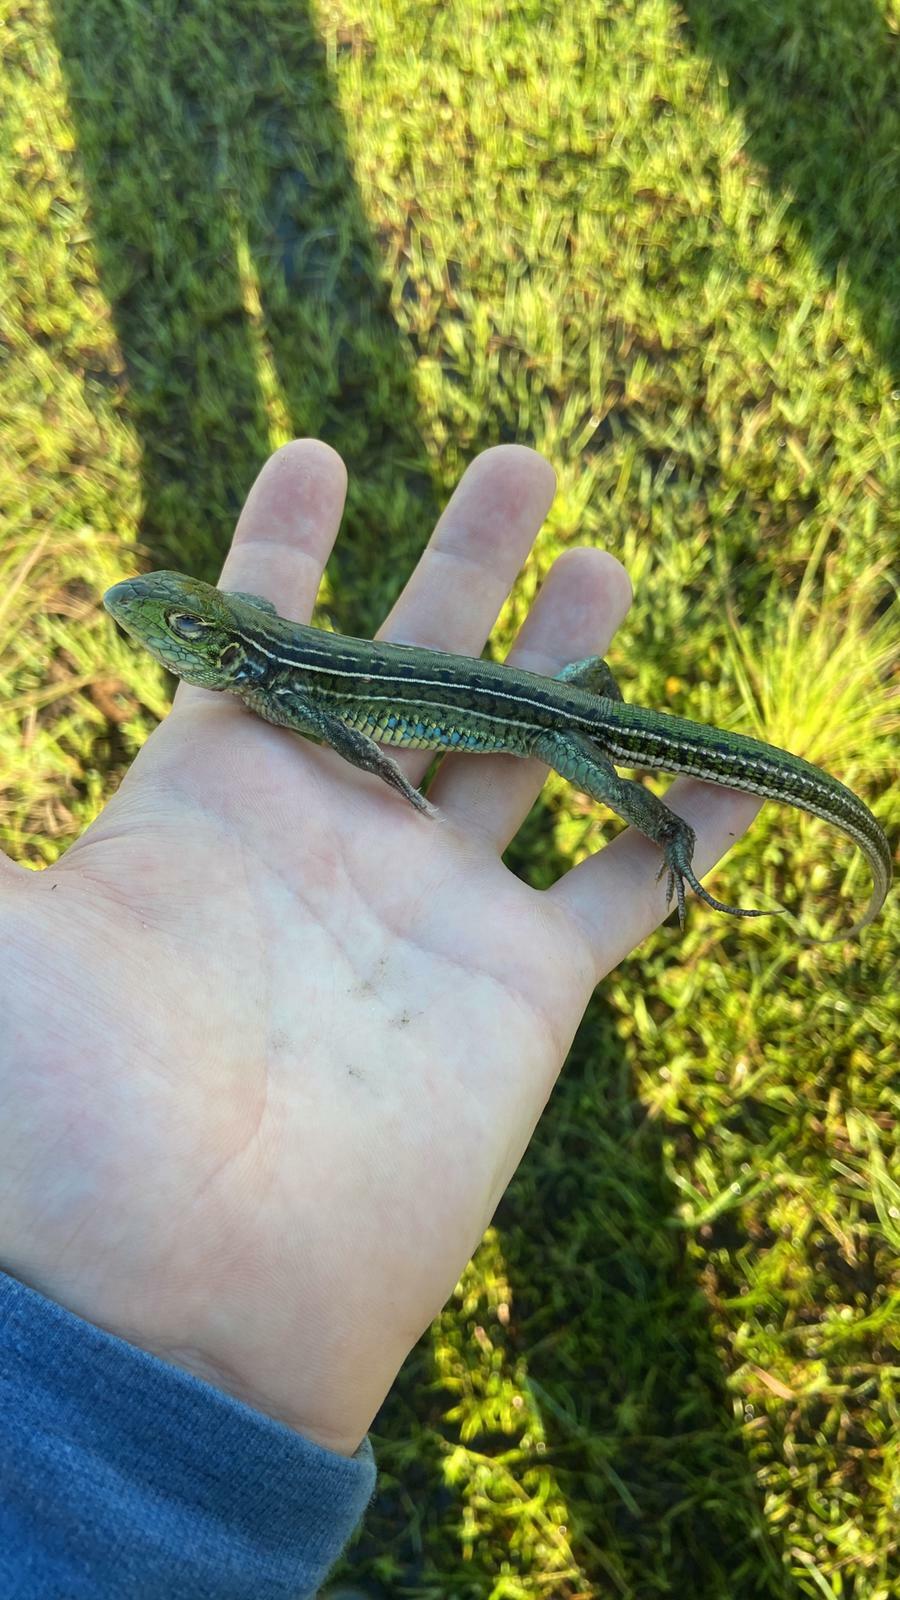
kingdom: Animalia
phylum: Chordata
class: Squamata
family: Teiidae
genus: Teius
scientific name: Teius oculatus
